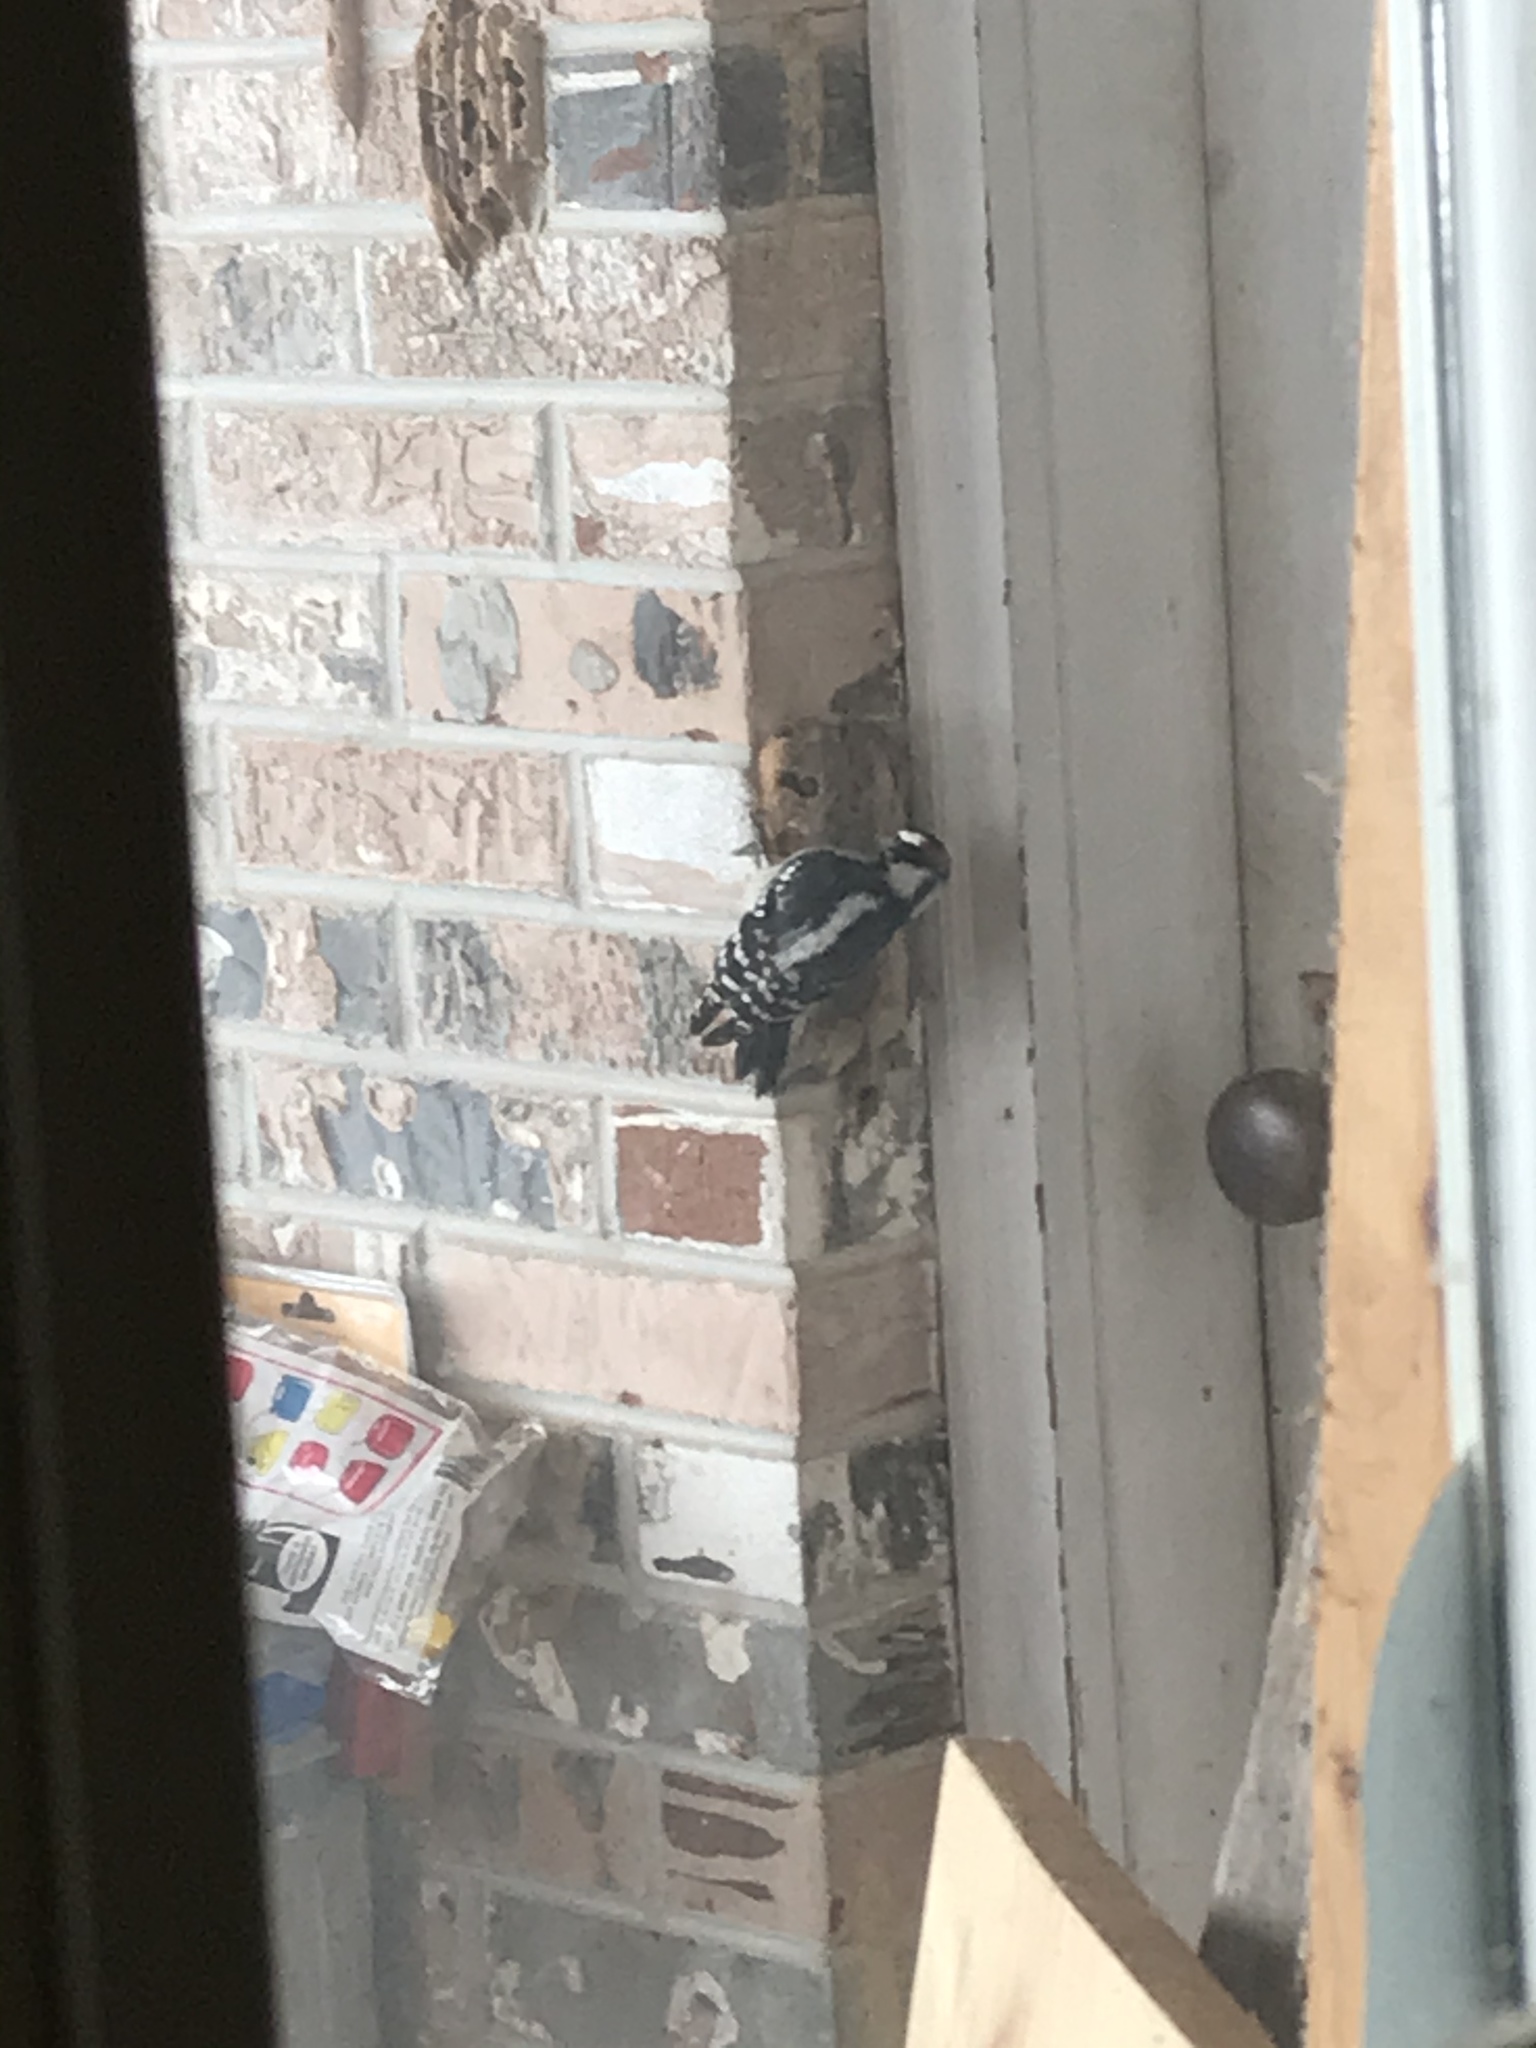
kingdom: Animalia
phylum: Chordata
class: Aves
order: Piciformes
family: Picidae
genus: Dryobates
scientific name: Dryobates pubescens
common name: Downy woodpecker
